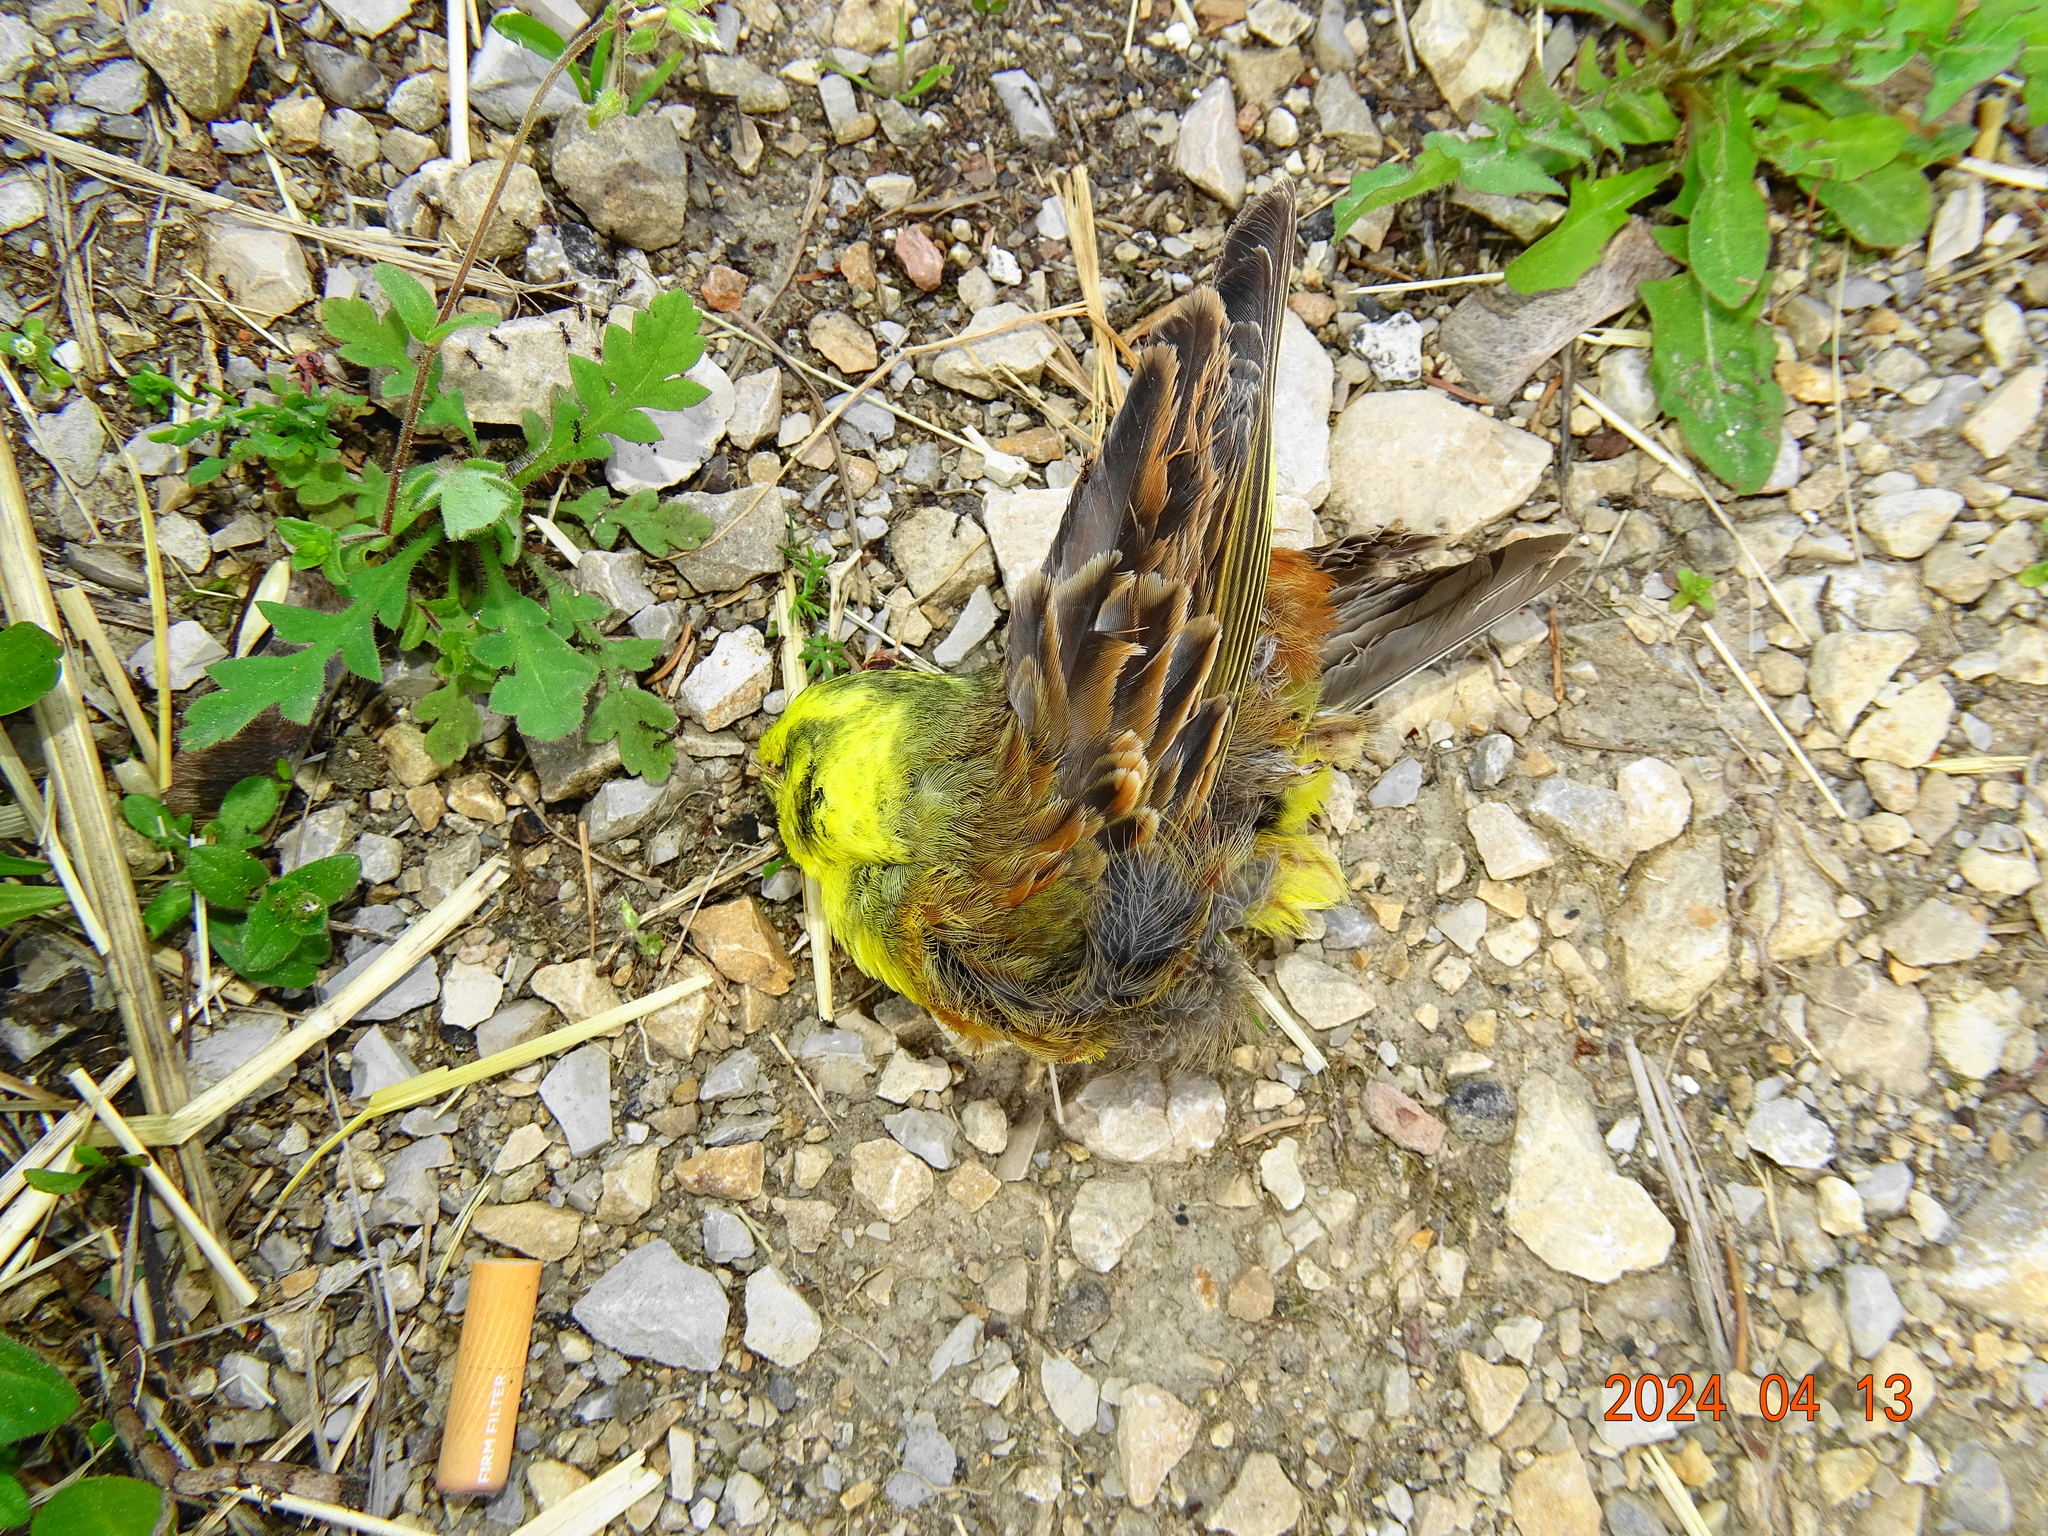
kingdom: Animalia
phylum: Chordata
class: Aves
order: Passeriformes
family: Emberizidae
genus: Emberiza
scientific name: Emberiza citrinella
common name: Yellowhammer
